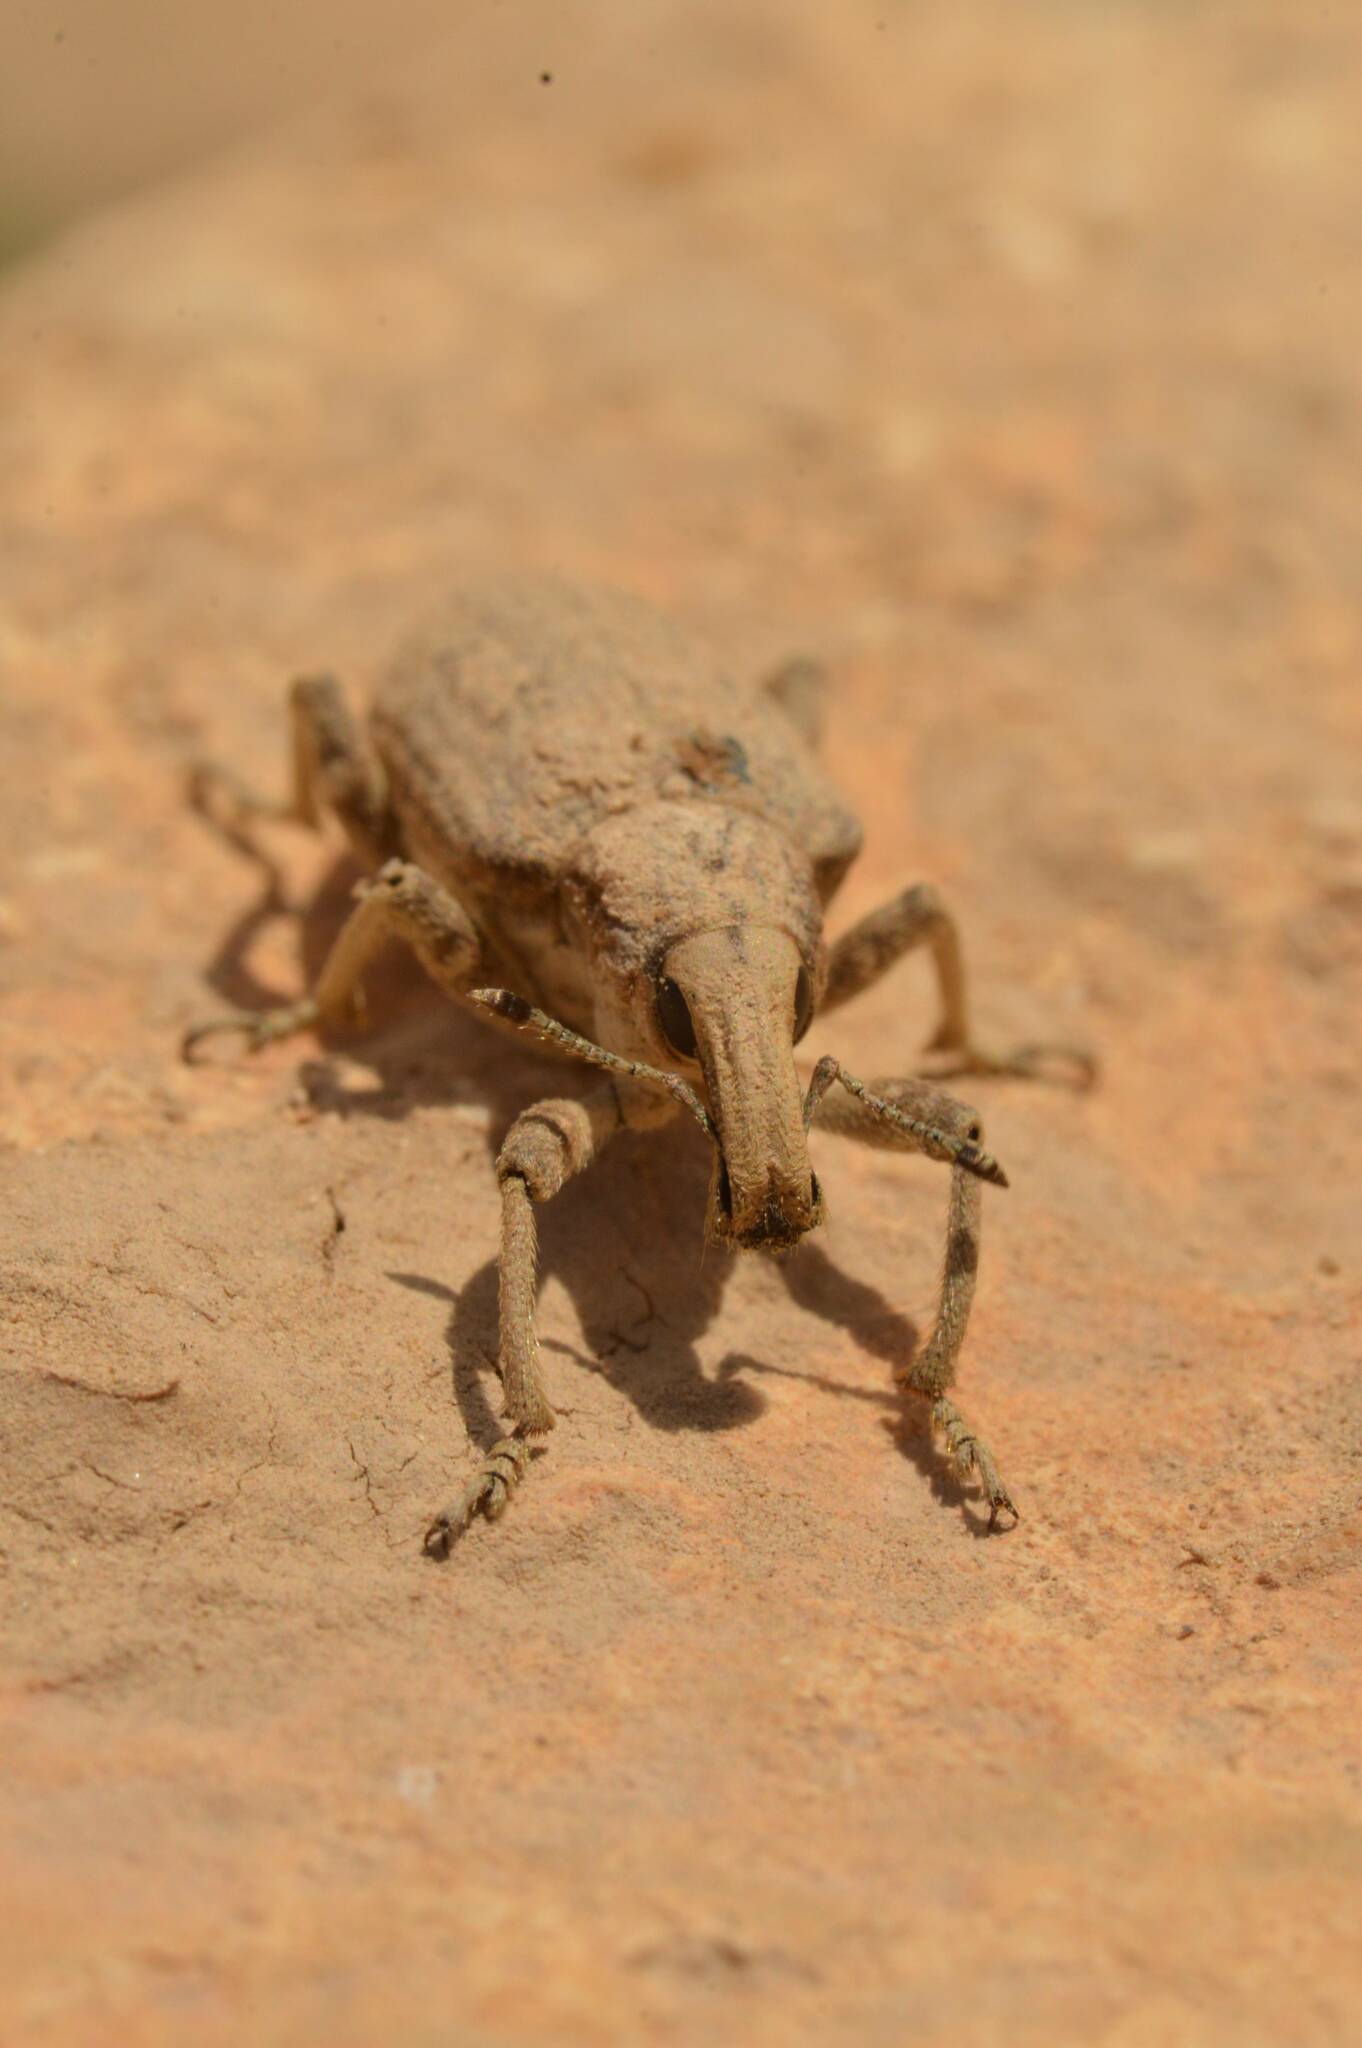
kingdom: Animalia
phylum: Arthropoda
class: Insecta
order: Coleoptera
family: Curculionidae
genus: Rhytideres
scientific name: Rhytideres plicatus
